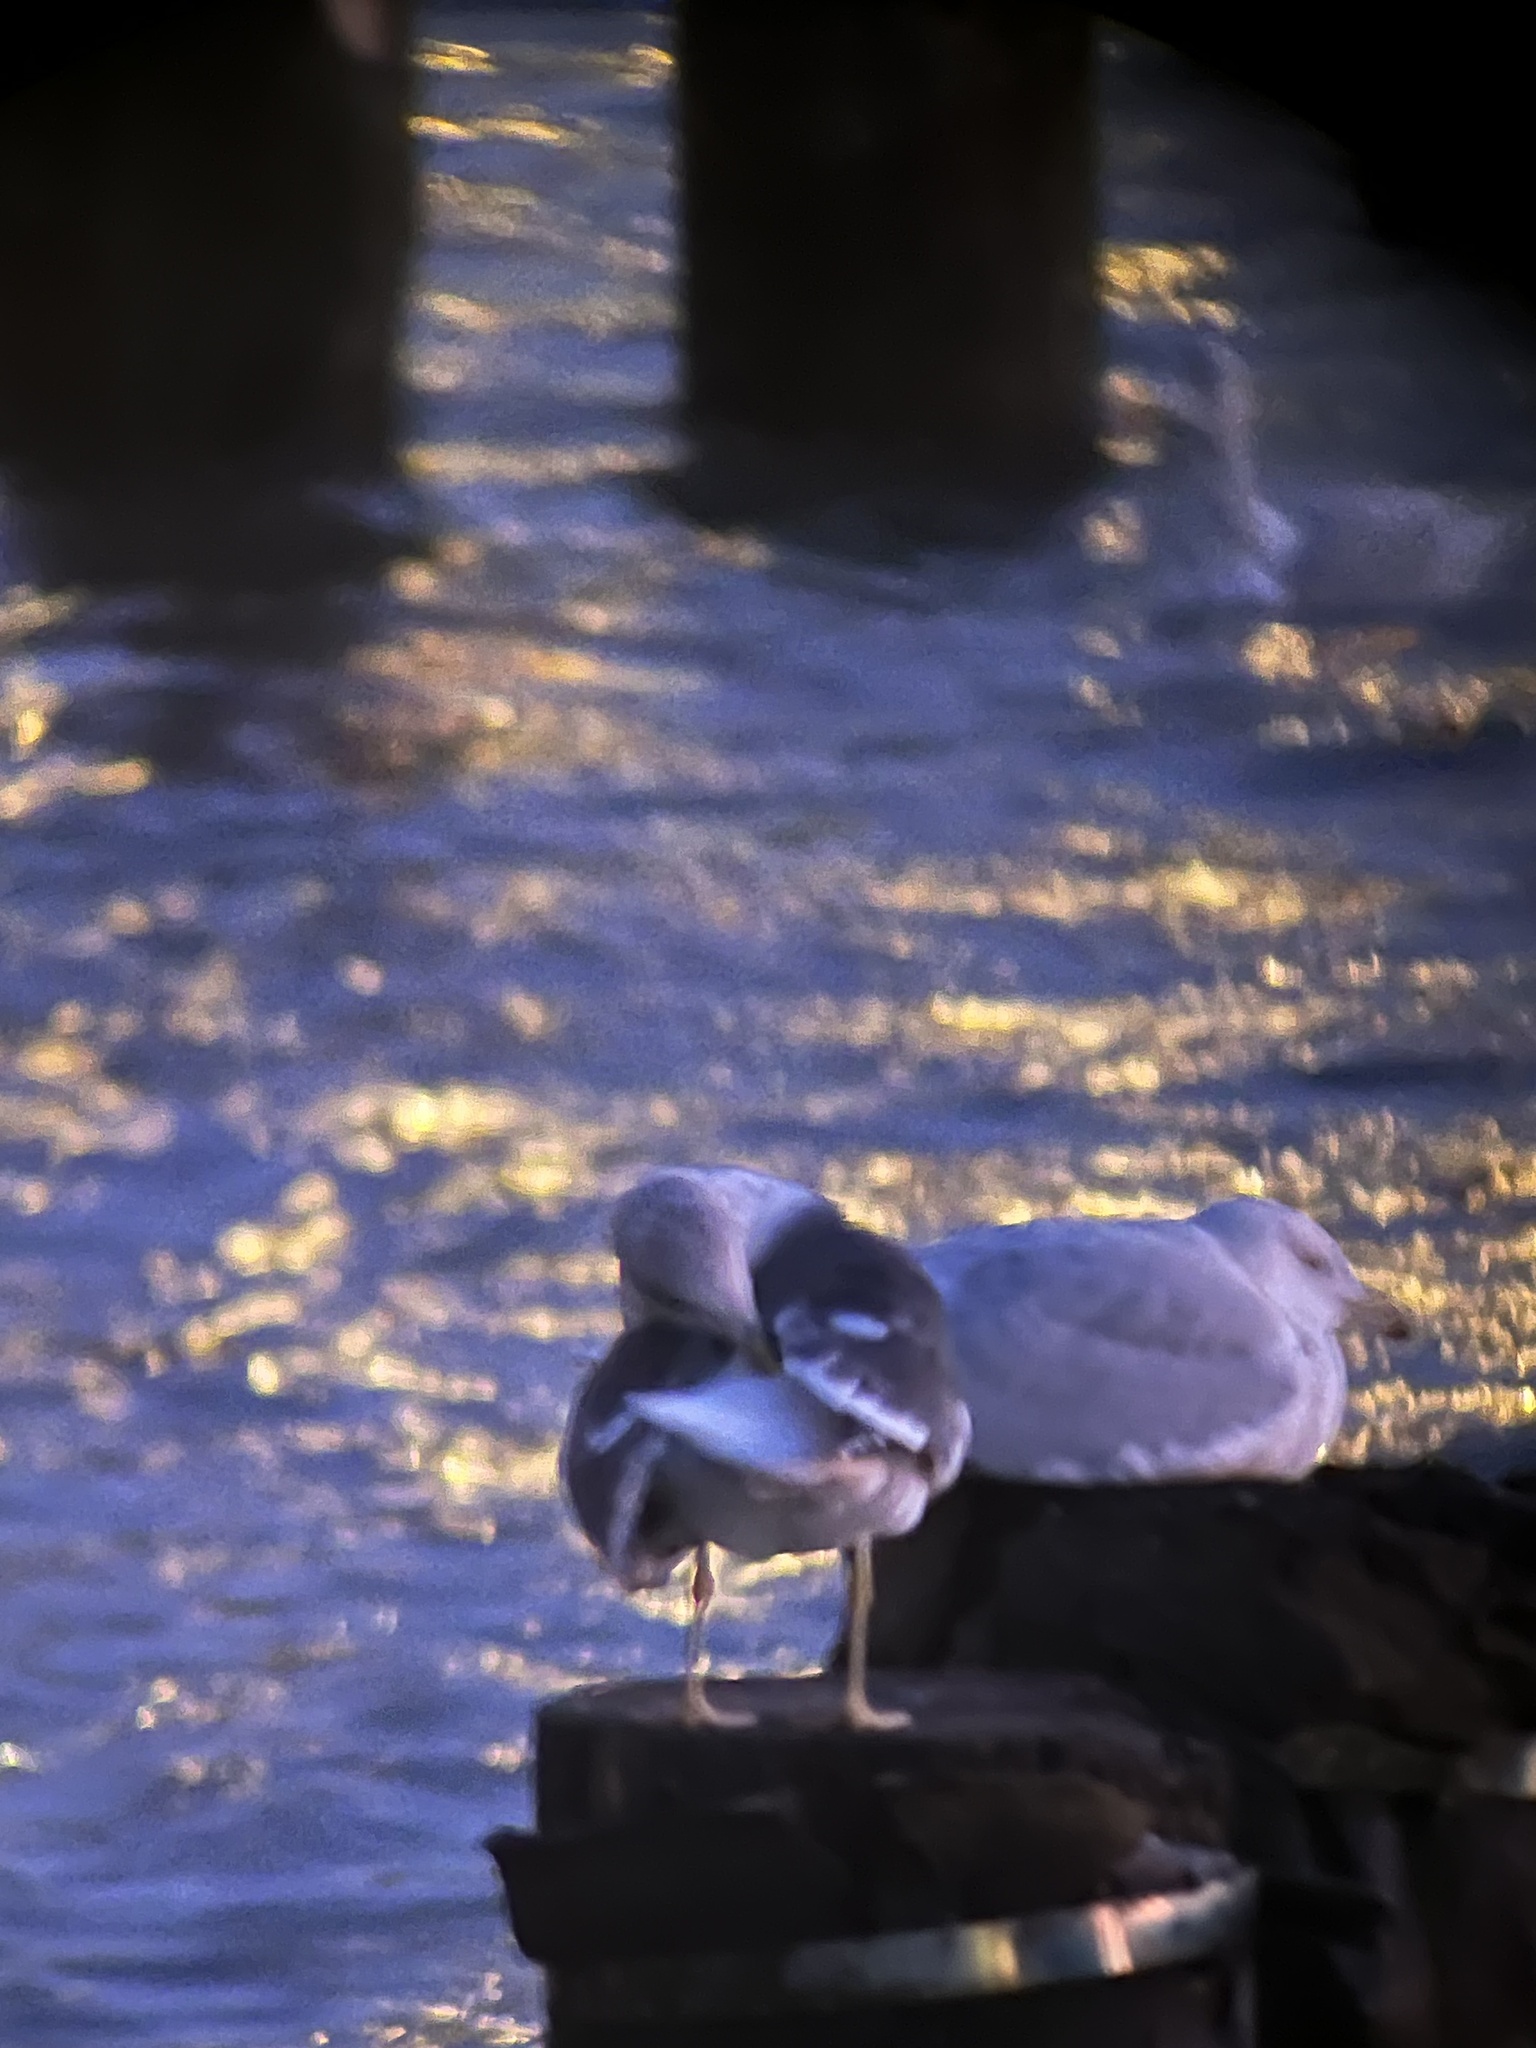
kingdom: Animalia
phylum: Chordata
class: Aves
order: Charadriiformes
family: Laridae
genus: Larus
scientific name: Larus fuscus
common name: Lesser black-backed gull
